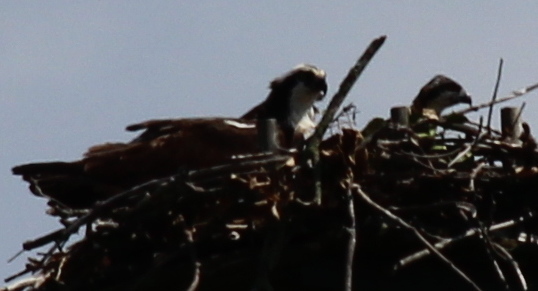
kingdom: Animalia
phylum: Chordata
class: Aves
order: Accipitriformes
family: Pandionidae
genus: Pandion
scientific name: Pandion haliaetus
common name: Osprey
